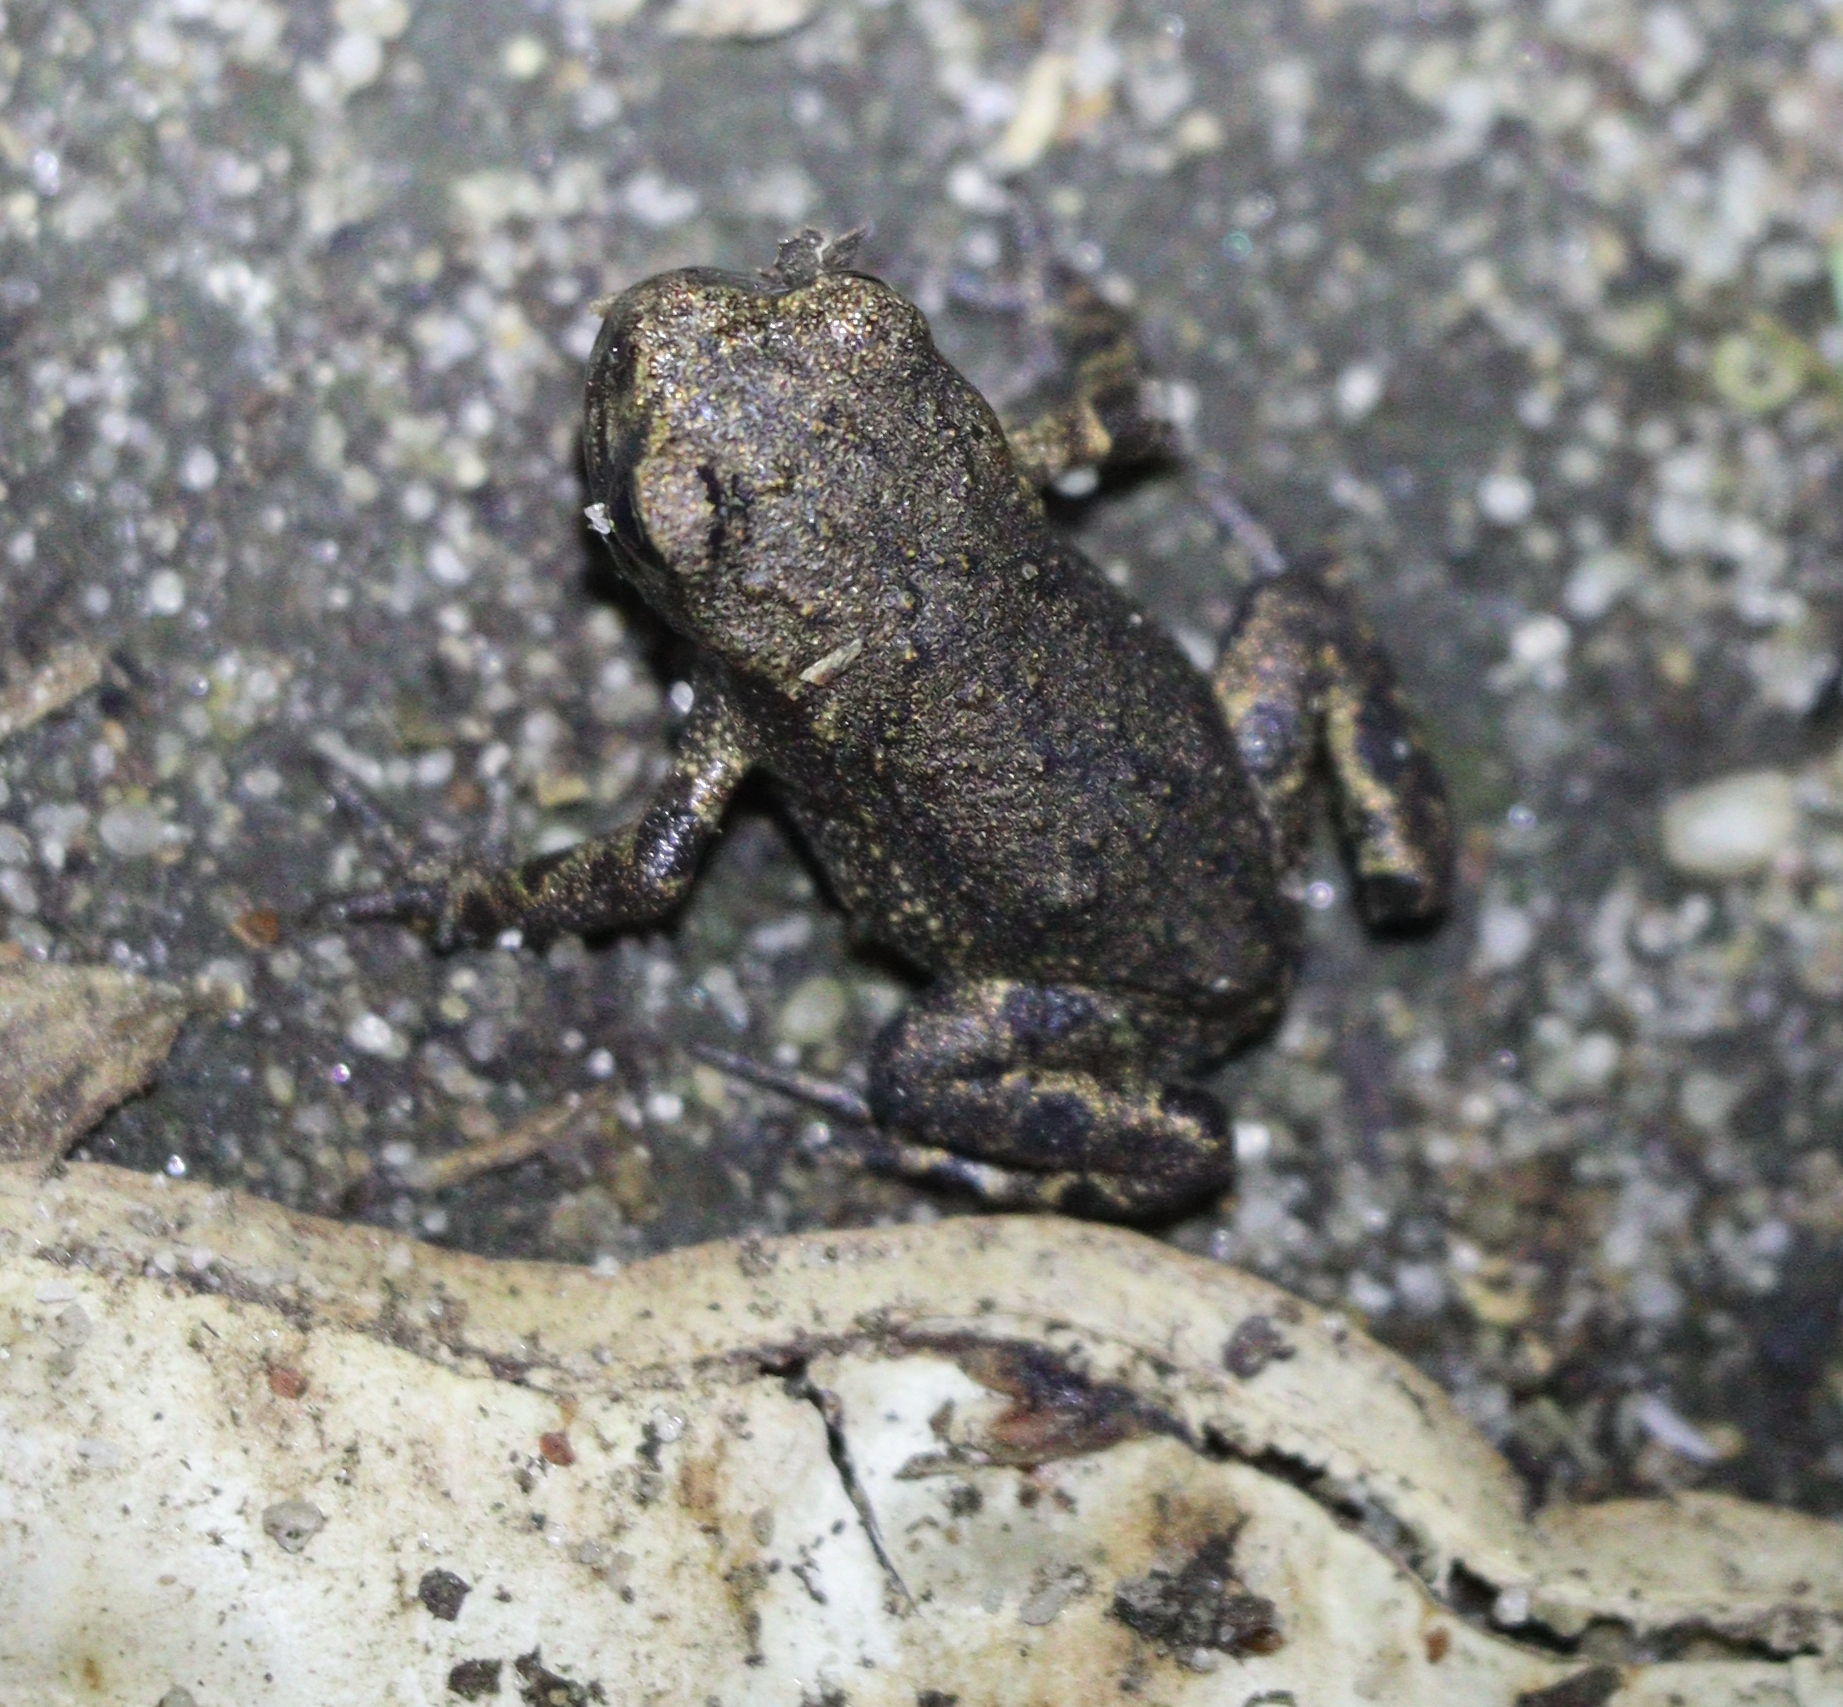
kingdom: Animalia
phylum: Chordata
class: Amphibia
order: Anura
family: Bufonidae
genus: Bufo
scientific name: Bufo bufo
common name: Common toad
